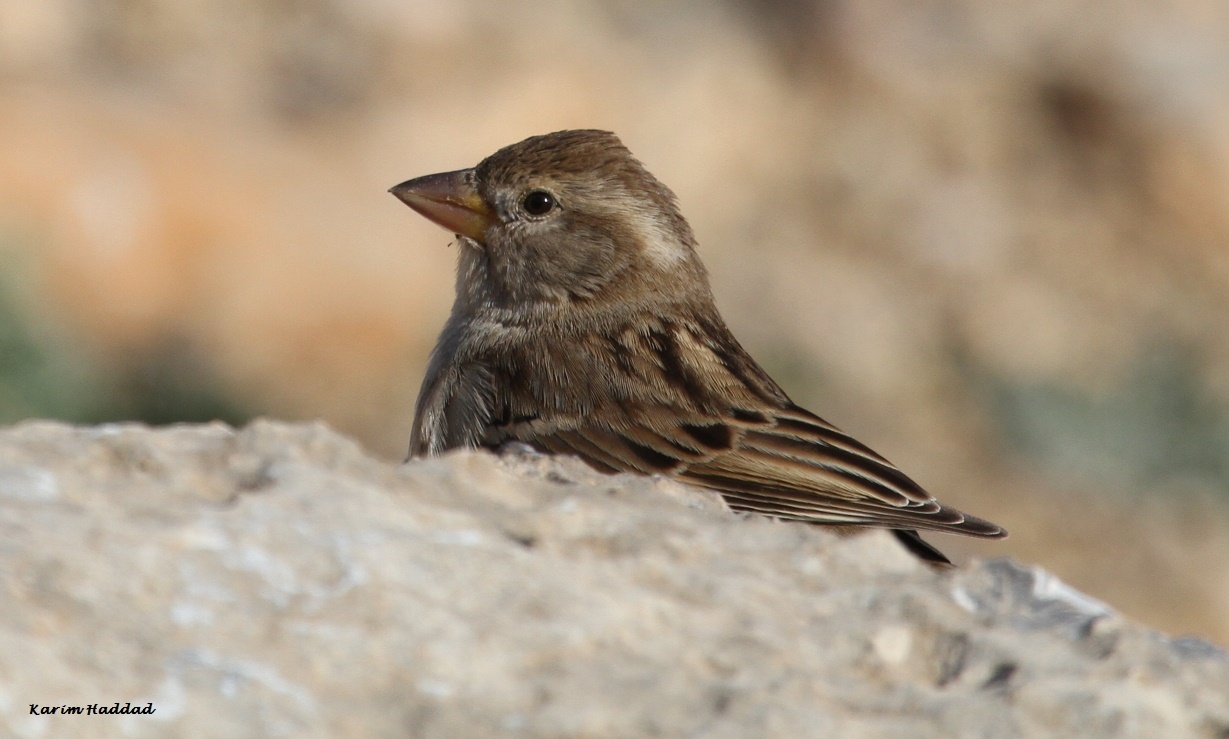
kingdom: Animalia
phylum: Chordata
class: Aves
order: Passeriformes
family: Passeridae
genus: Passer
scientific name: Passer domesticus
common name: House sparrow
